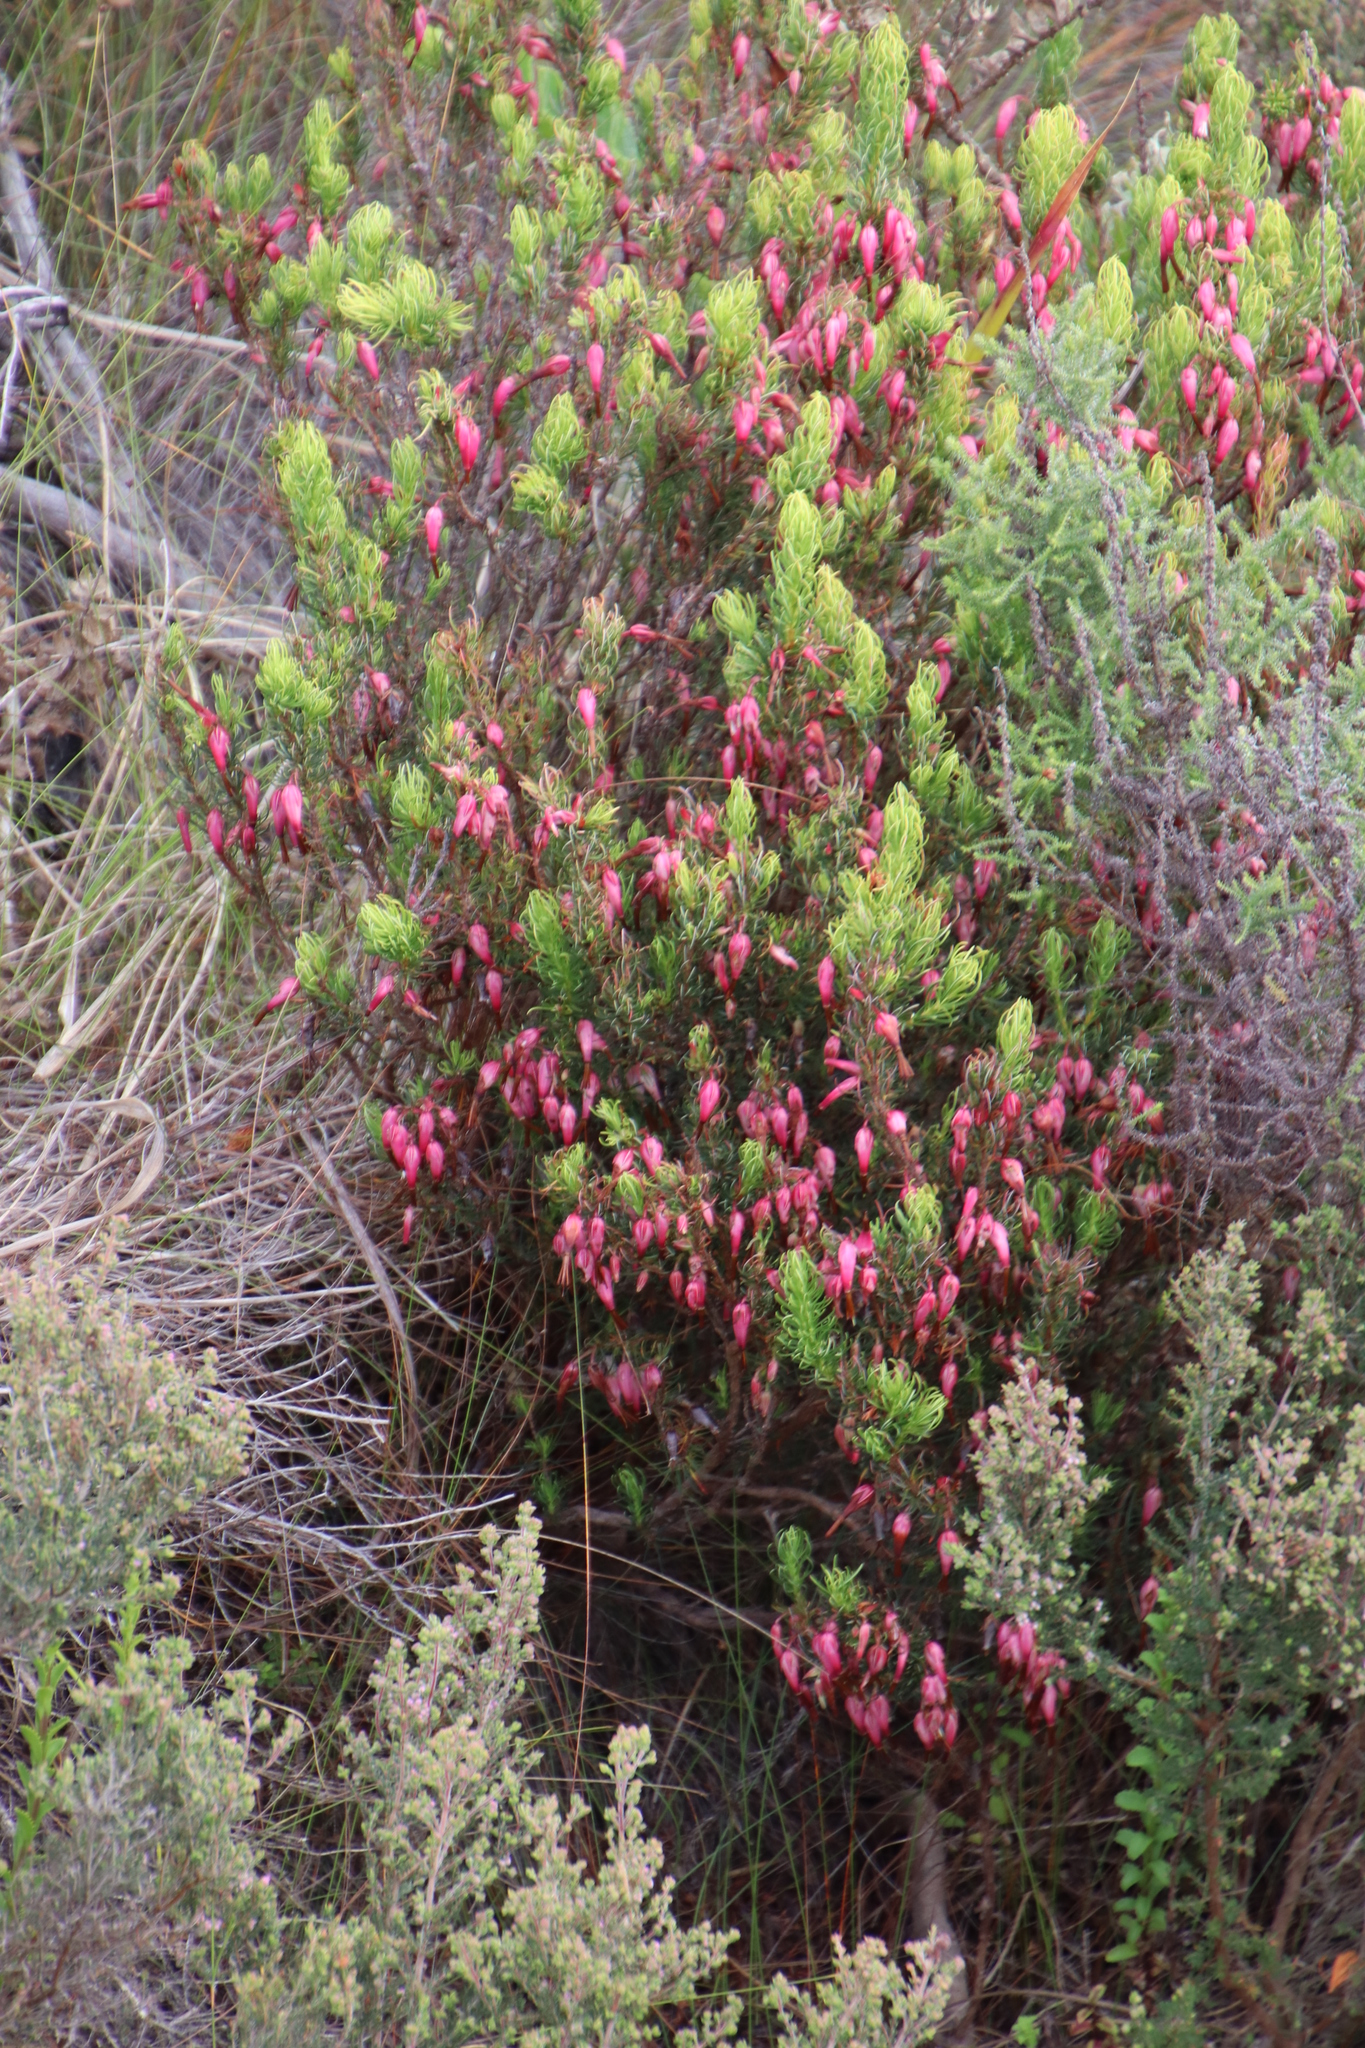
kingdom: Plantae
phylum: Tracheophyta
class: Magnoliopsida
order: Ericales
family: Ericaceae
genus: Erica
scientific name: Erica plukenetii
